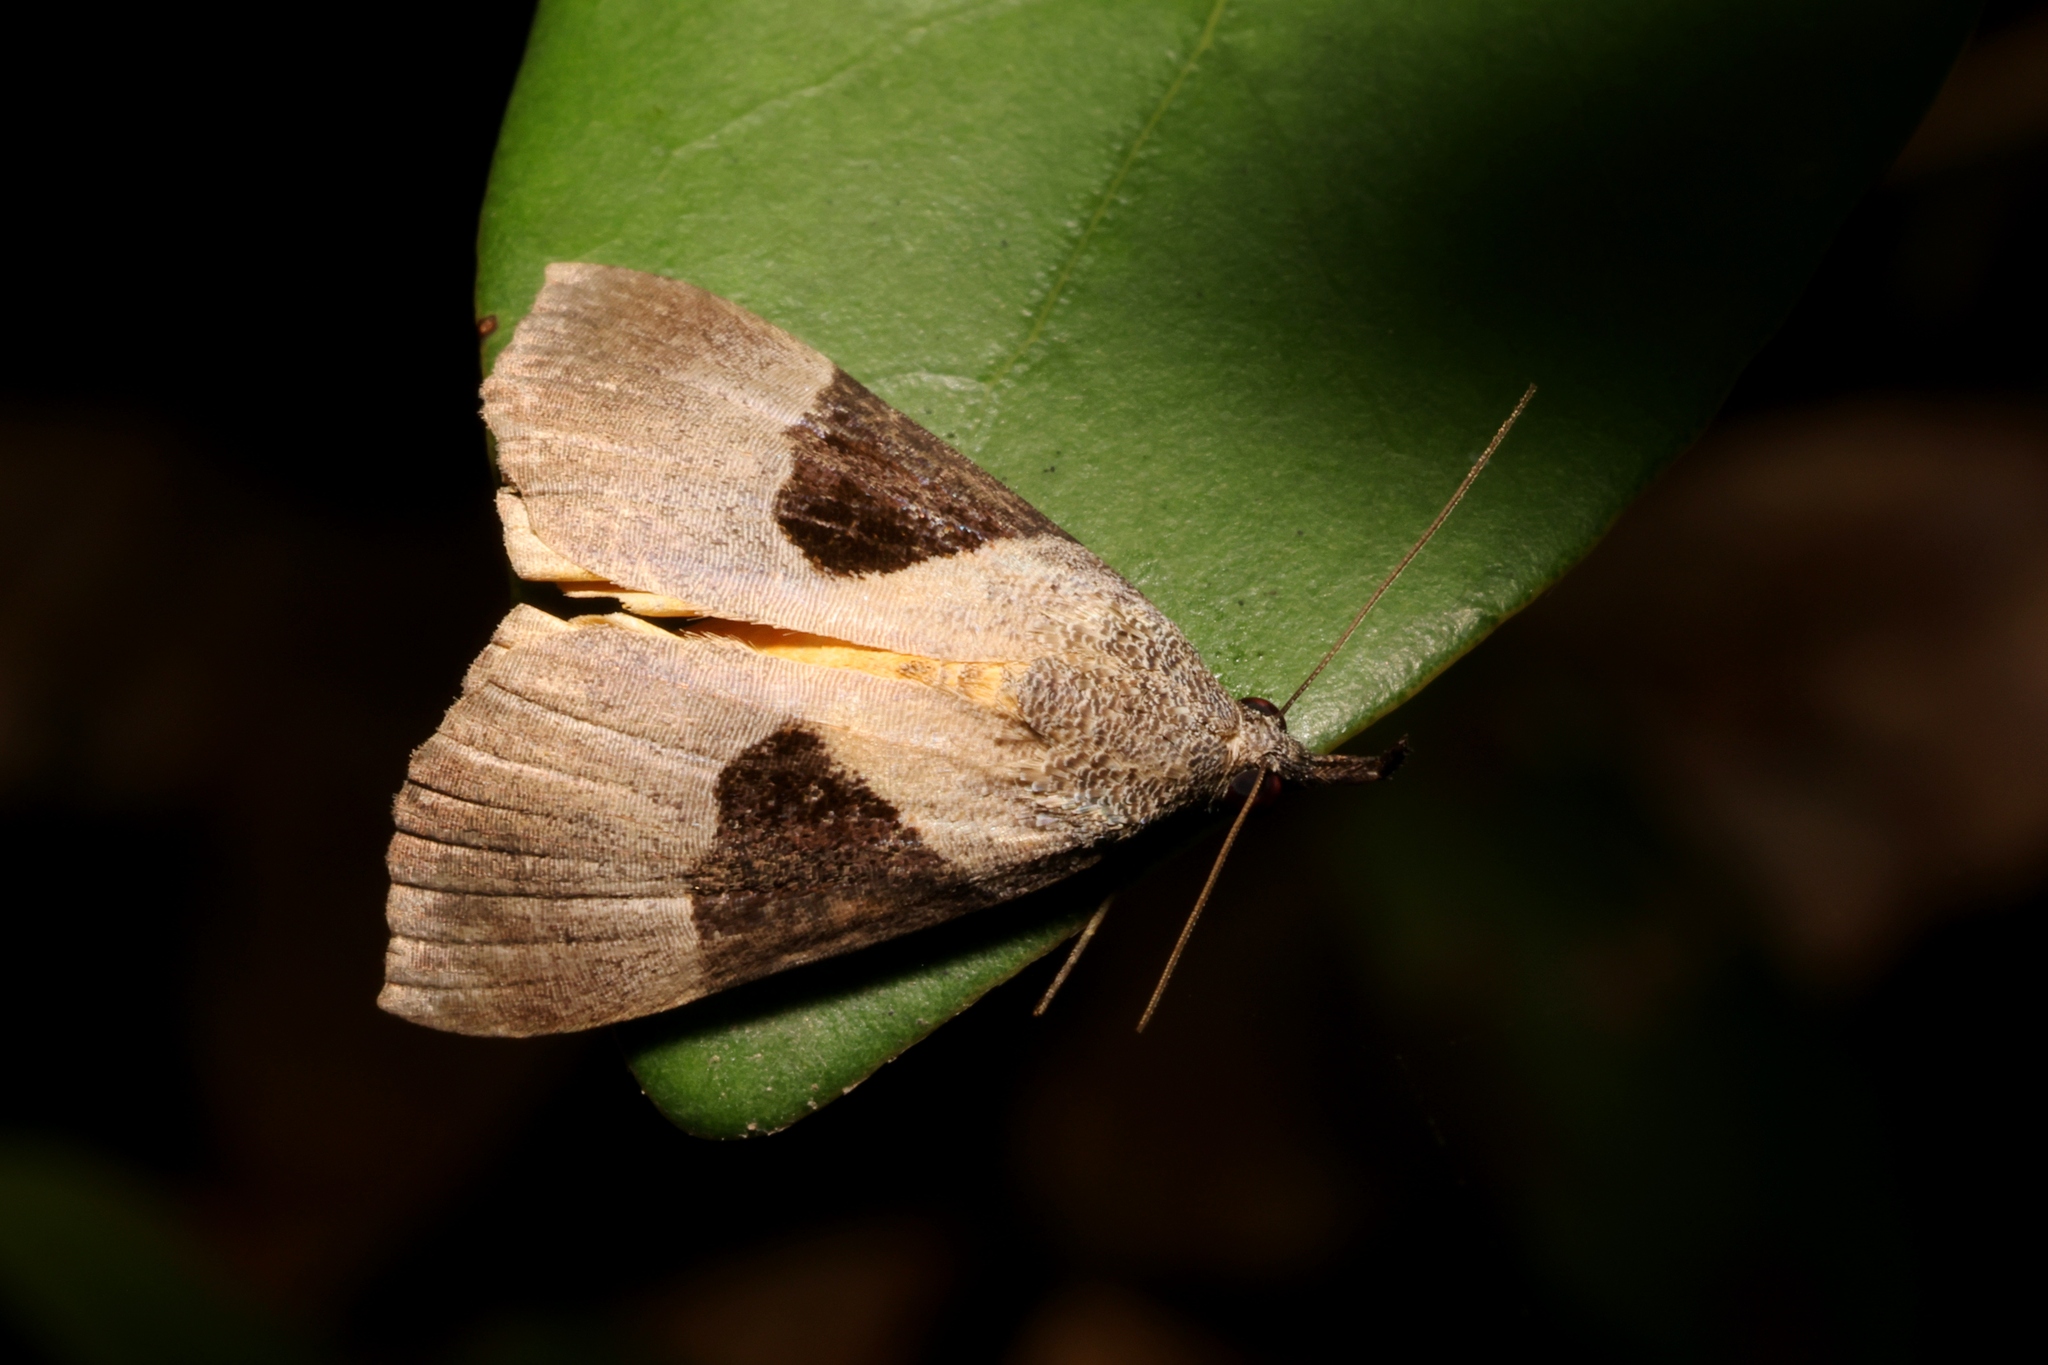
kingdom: Animalia
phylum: Arthropoda
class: Insecta
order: Lepidoptera
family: Erebidae
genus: Hypena
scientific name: Hypena Dichromia sagitta
